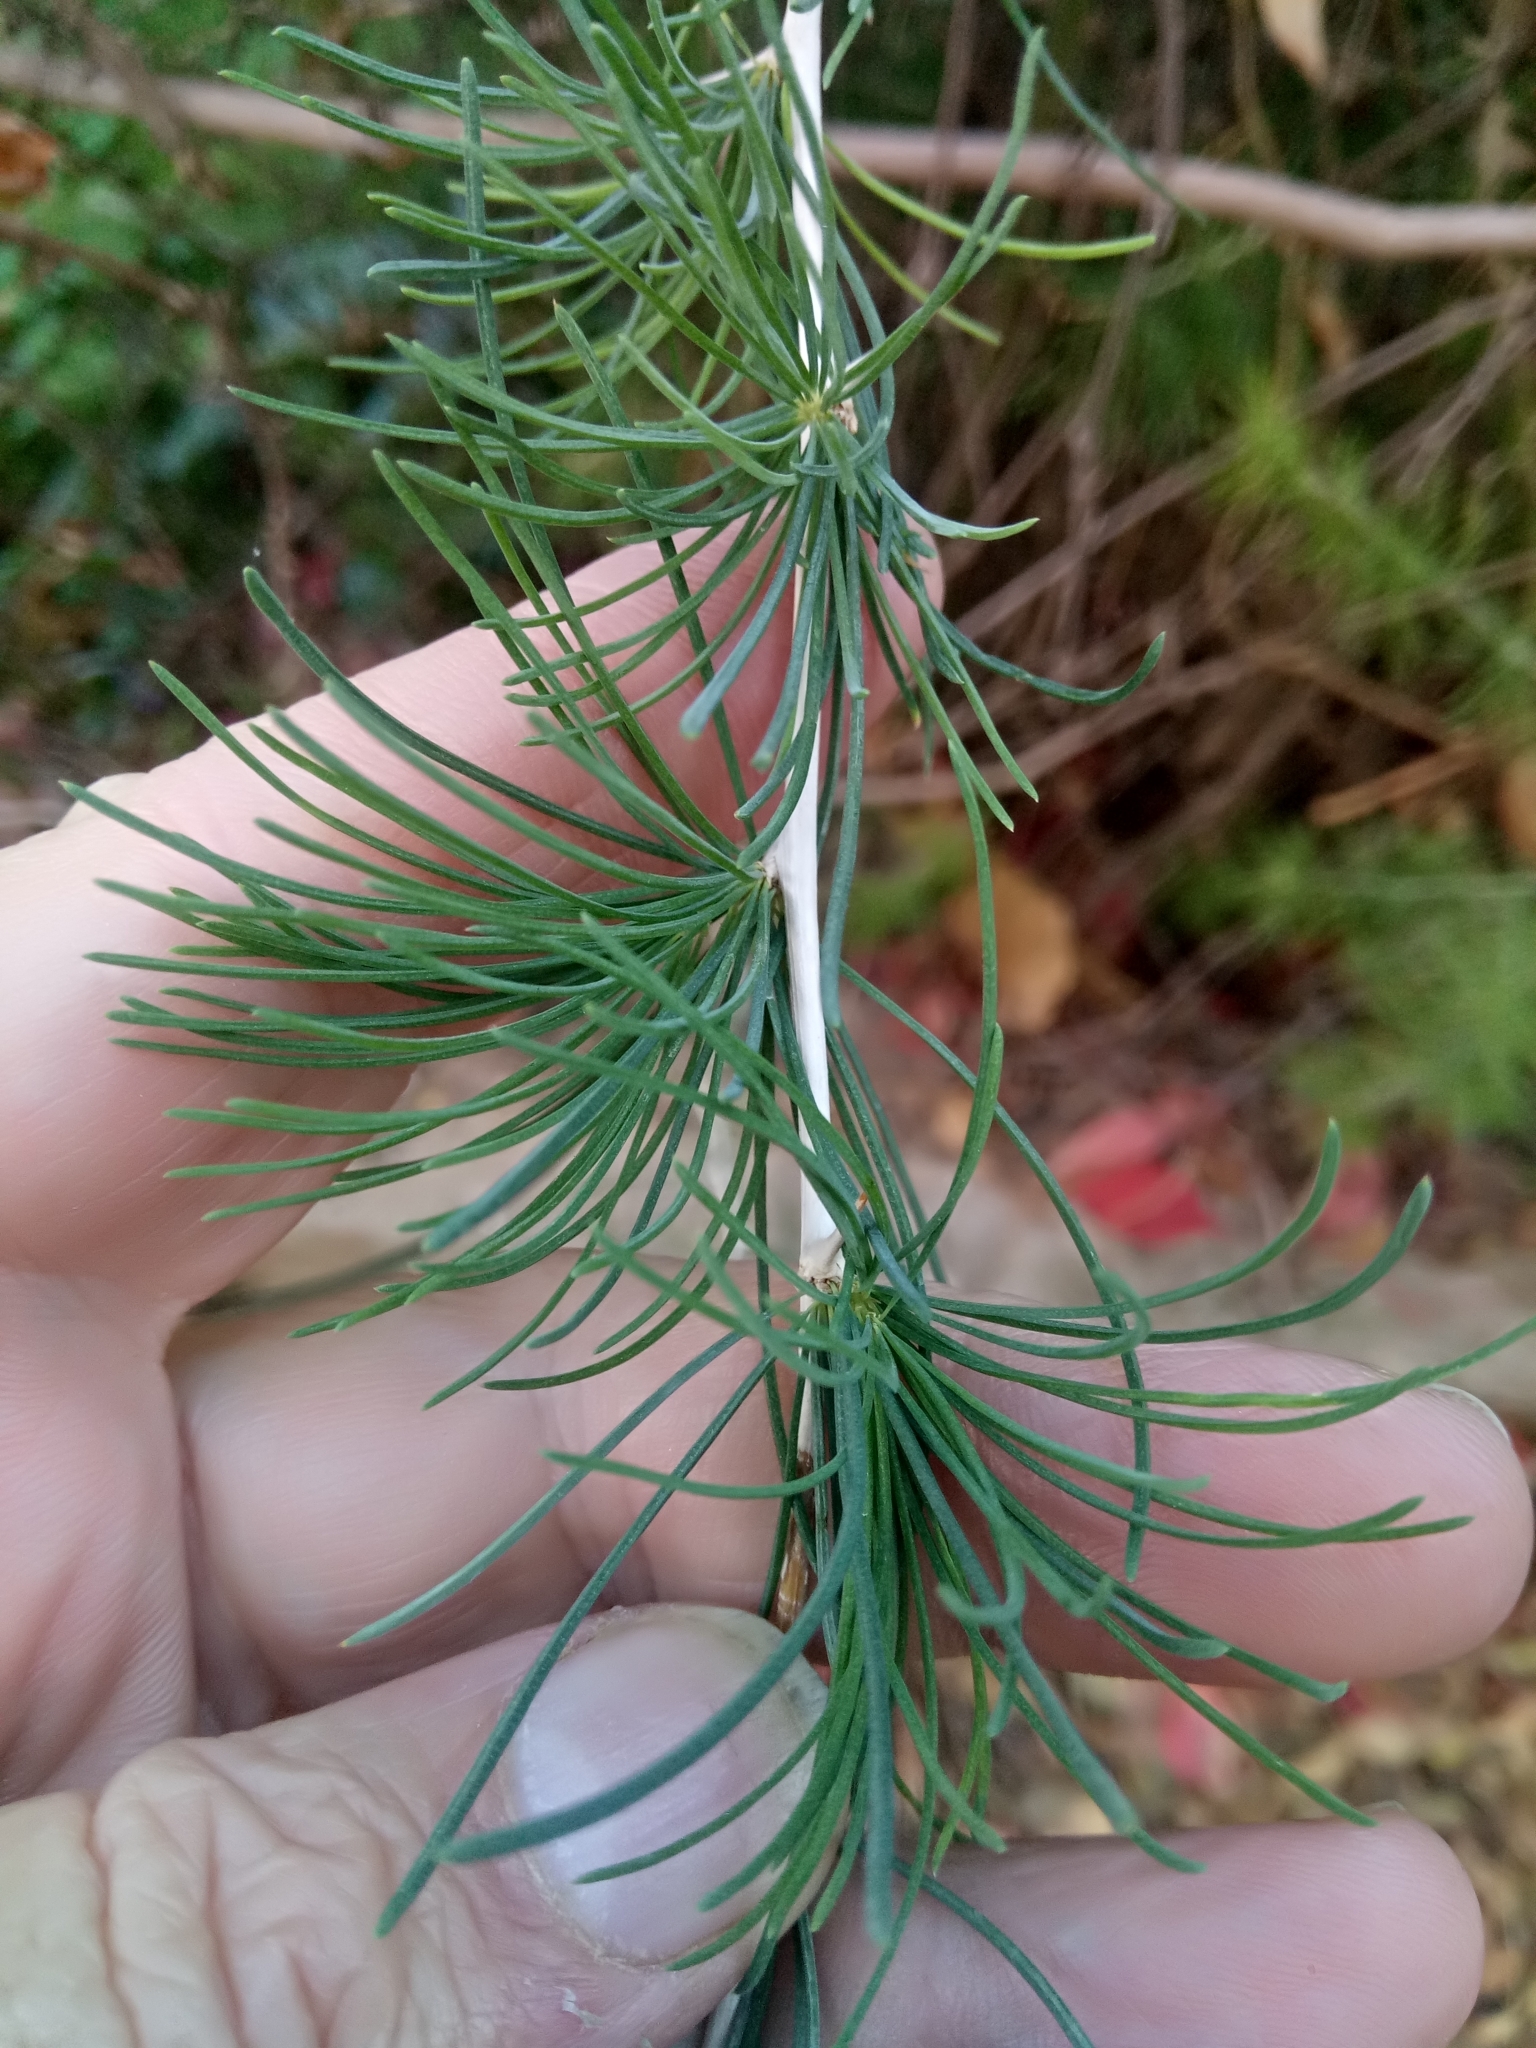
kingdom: Plantae
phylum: Tracheophyta
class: Liliopsida
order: Asparagales
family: Asparagaceae
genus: Asparagus
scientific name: Asparagus albus
